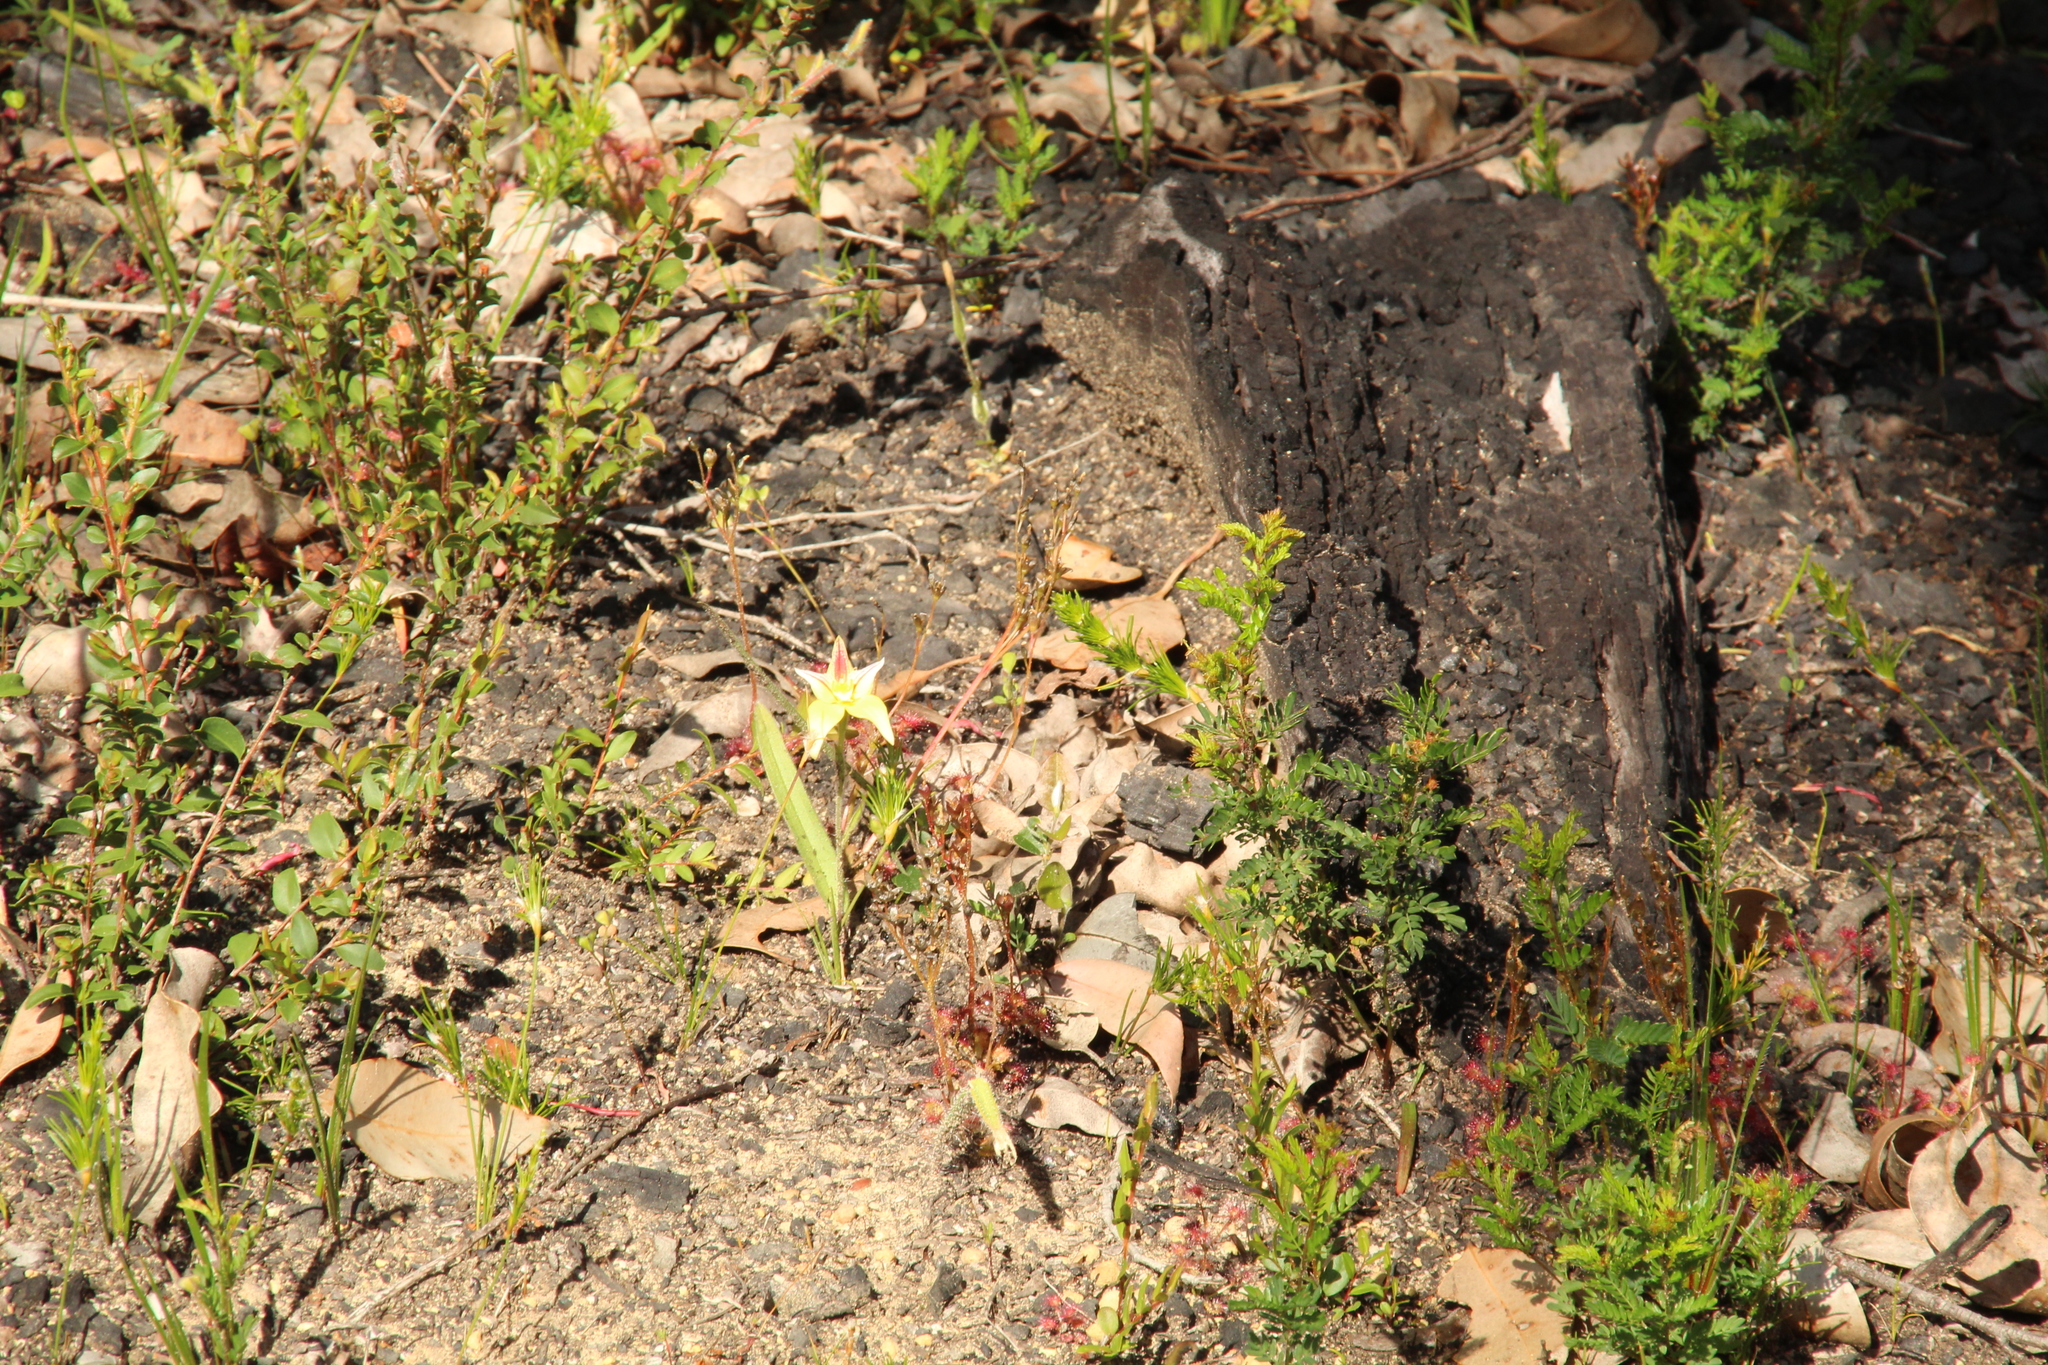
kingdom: Plantae
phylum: Tracheophyta
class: Liliopsida
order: Asparagales
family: Orchidaceae
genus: Caladenia
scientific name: Caladenia flava
